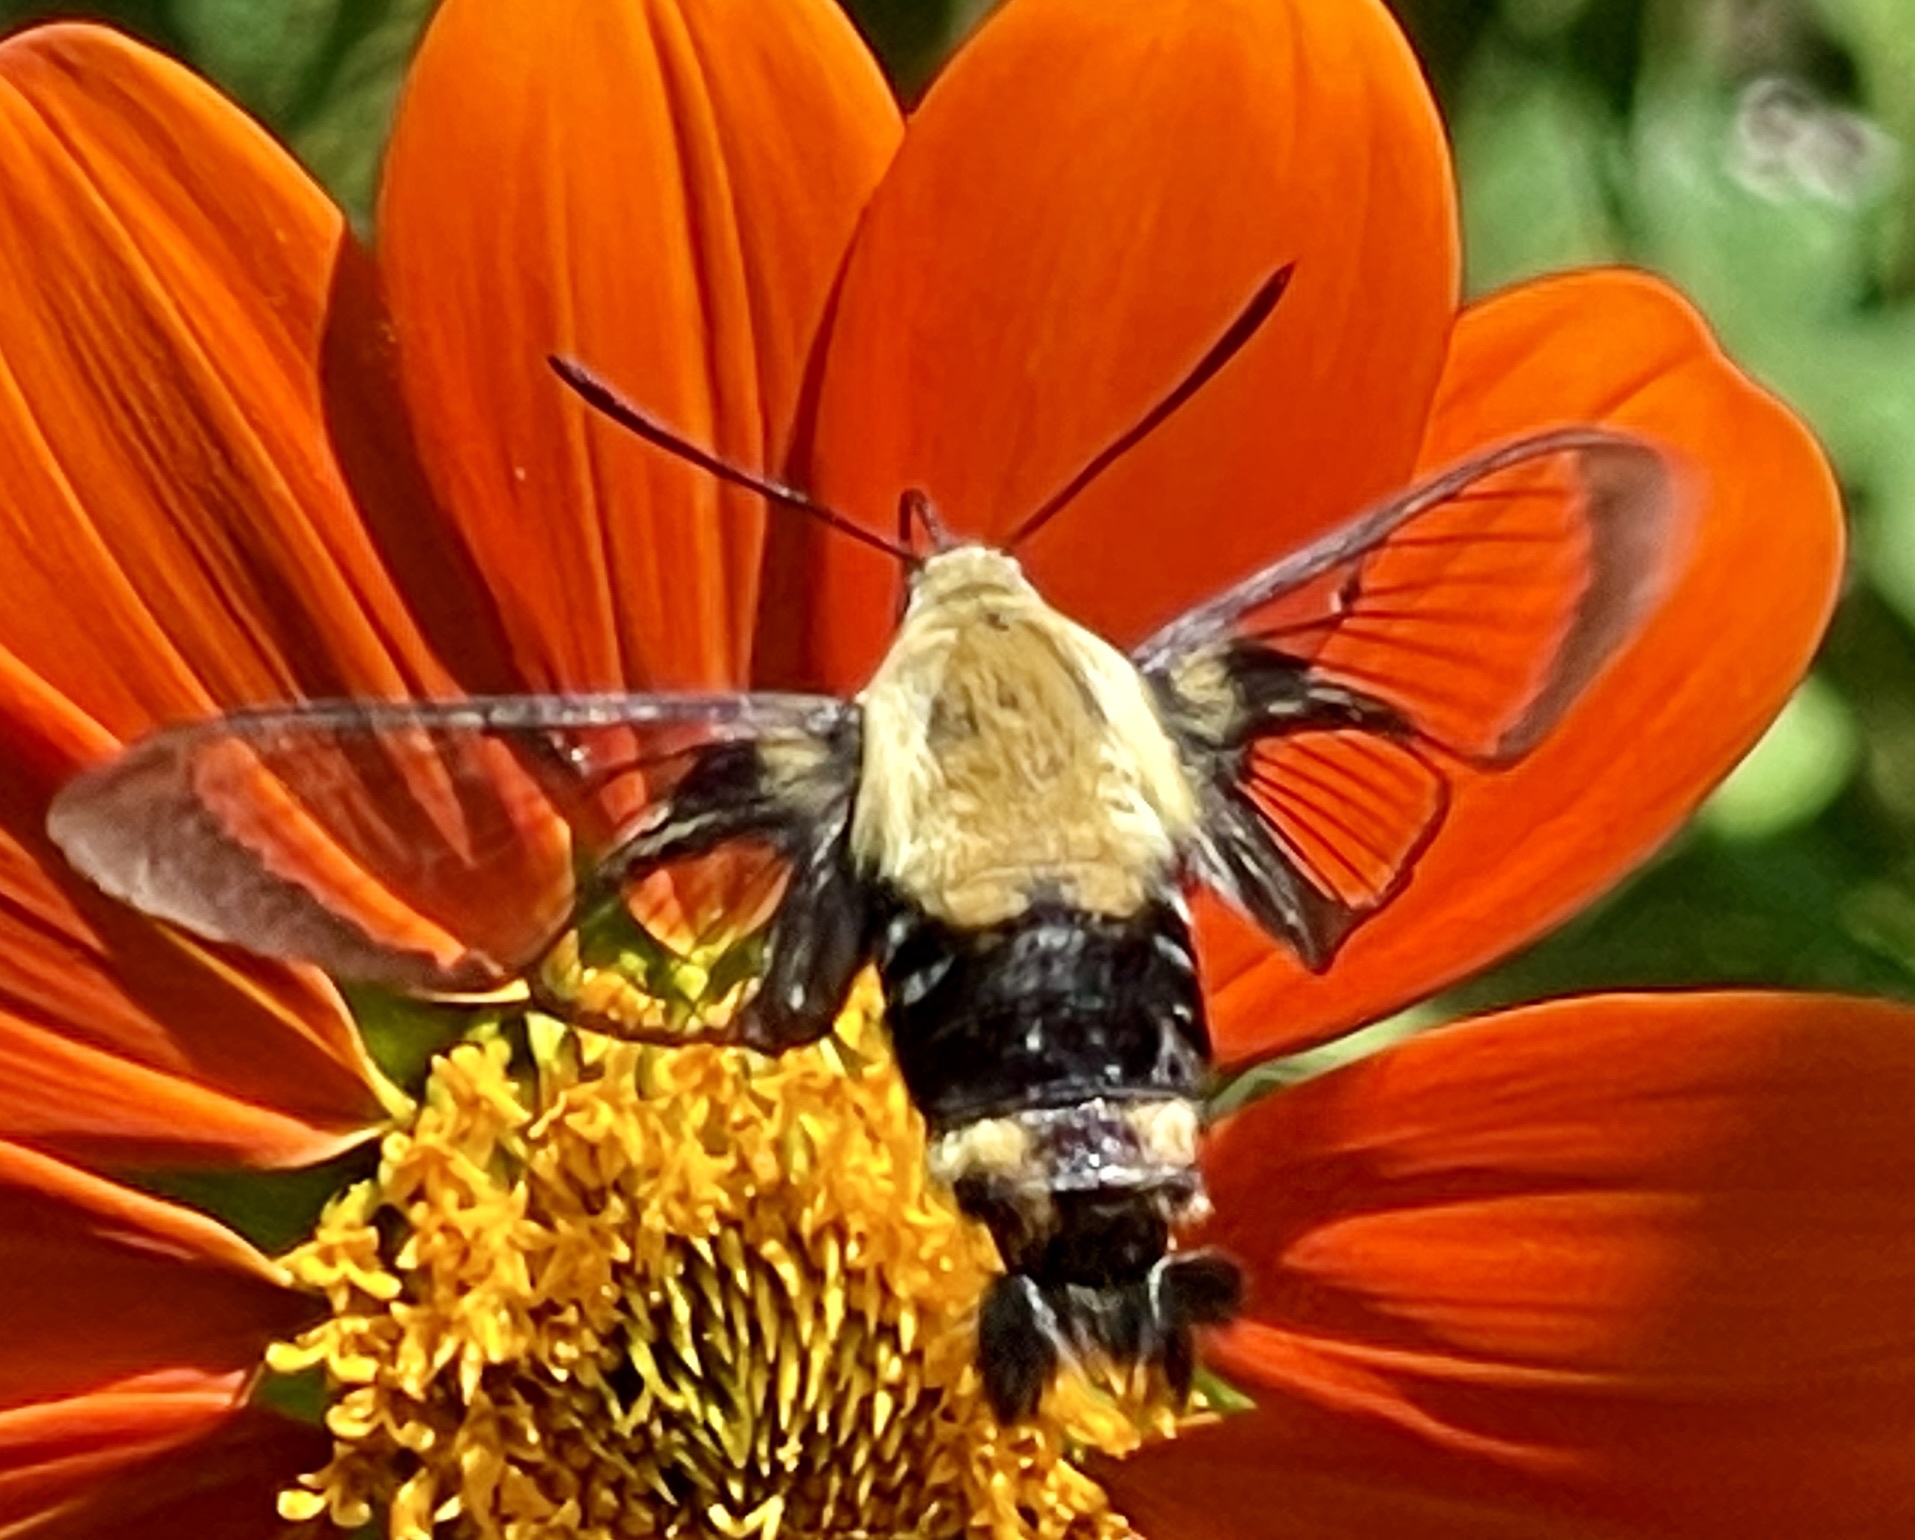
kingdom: Animalia
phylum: Arthropoda
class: Insecta
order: Lepidoptera
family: Sphingidae
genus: Hemaris
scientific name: Hemaris diffinis
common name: Bumblebee moth
